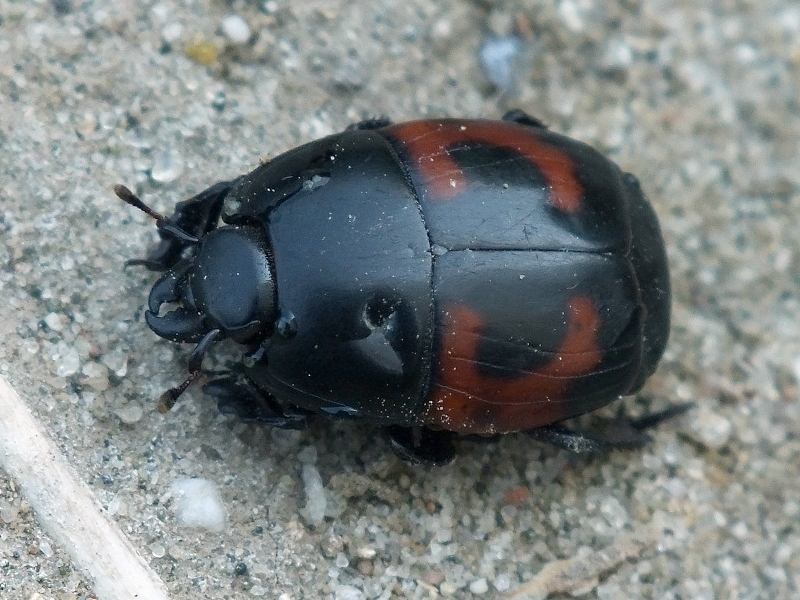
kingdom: Animalia
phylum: Arthropoda
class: Insecta
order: Coleoptera
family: Histeridae
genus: Hister
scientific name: Hister quadrimaculatus
